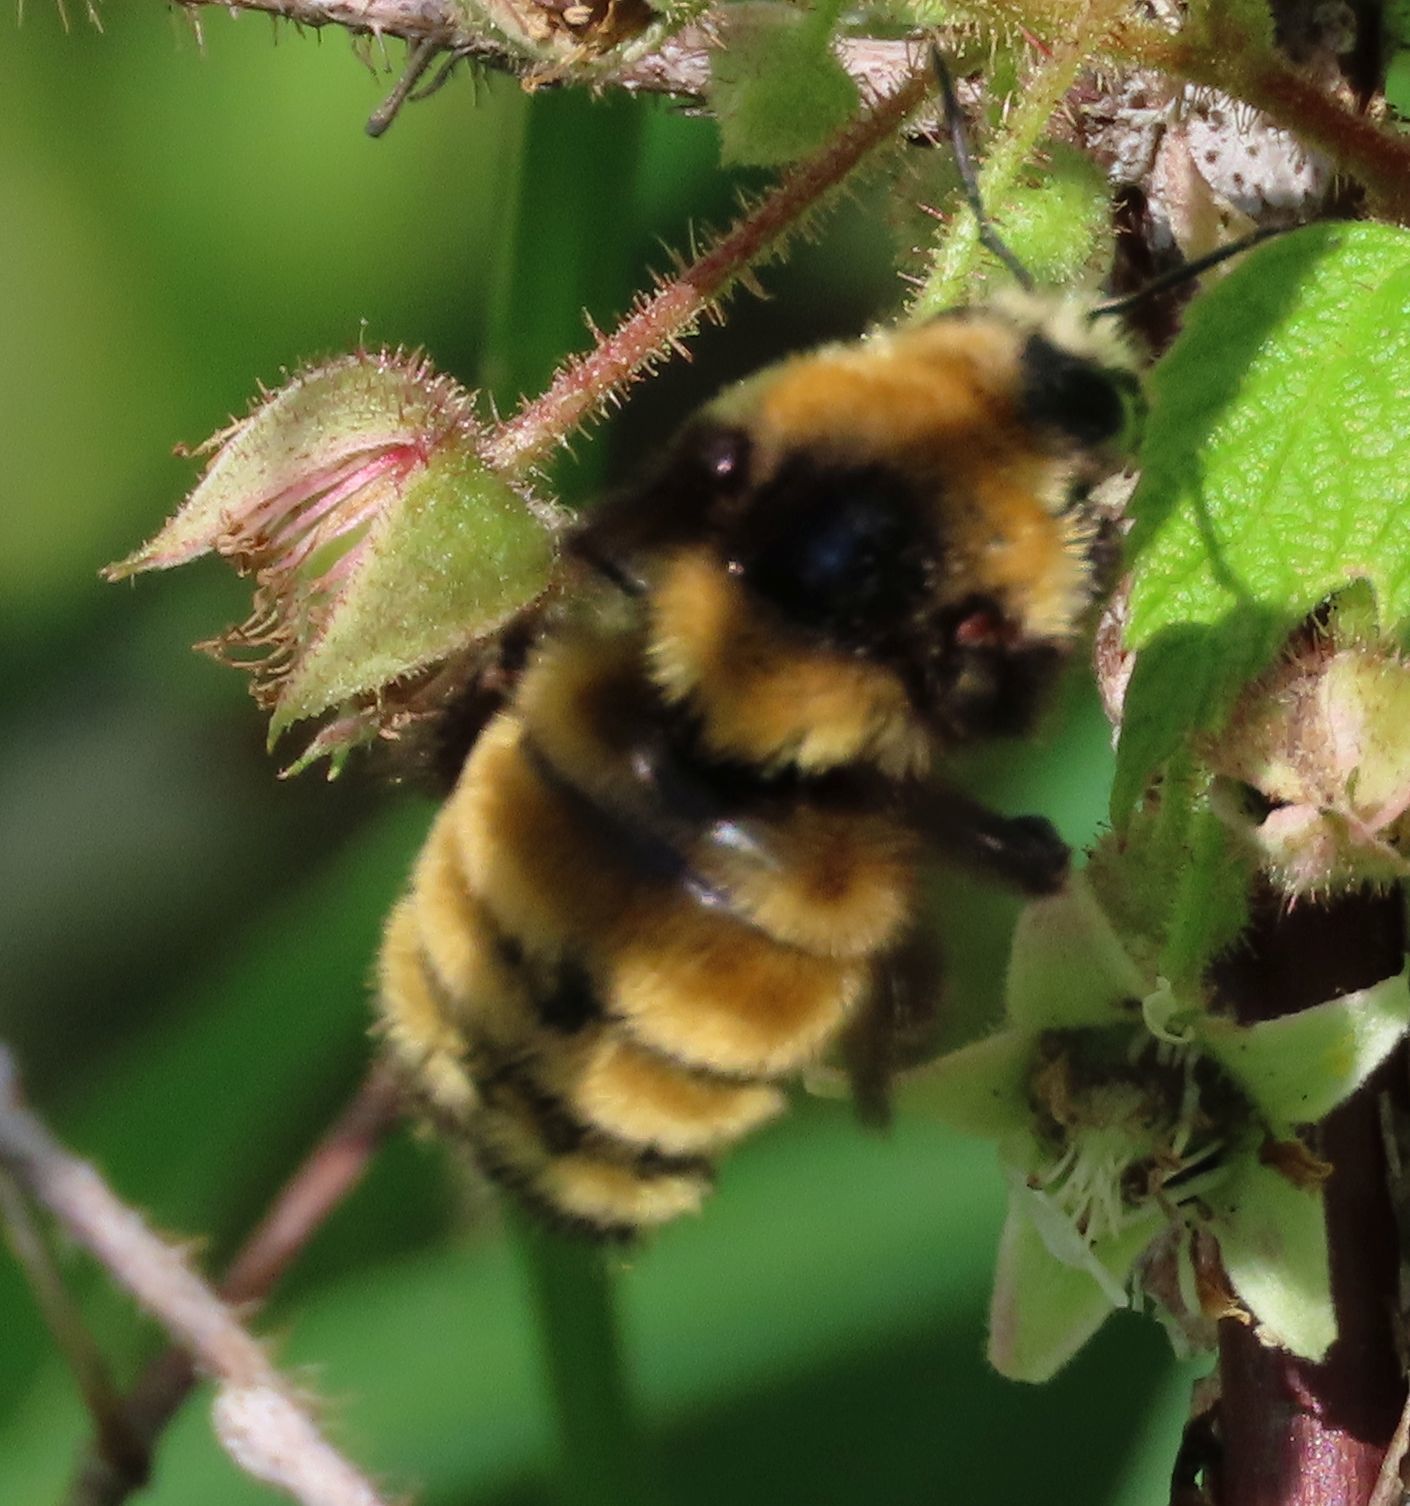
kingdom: Animalia
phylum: Arthropoda
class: Insecta
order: Hymenoptera
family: Apidae
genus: Bombus
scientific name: Bombus borealis
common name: Northern amber bumble bee
